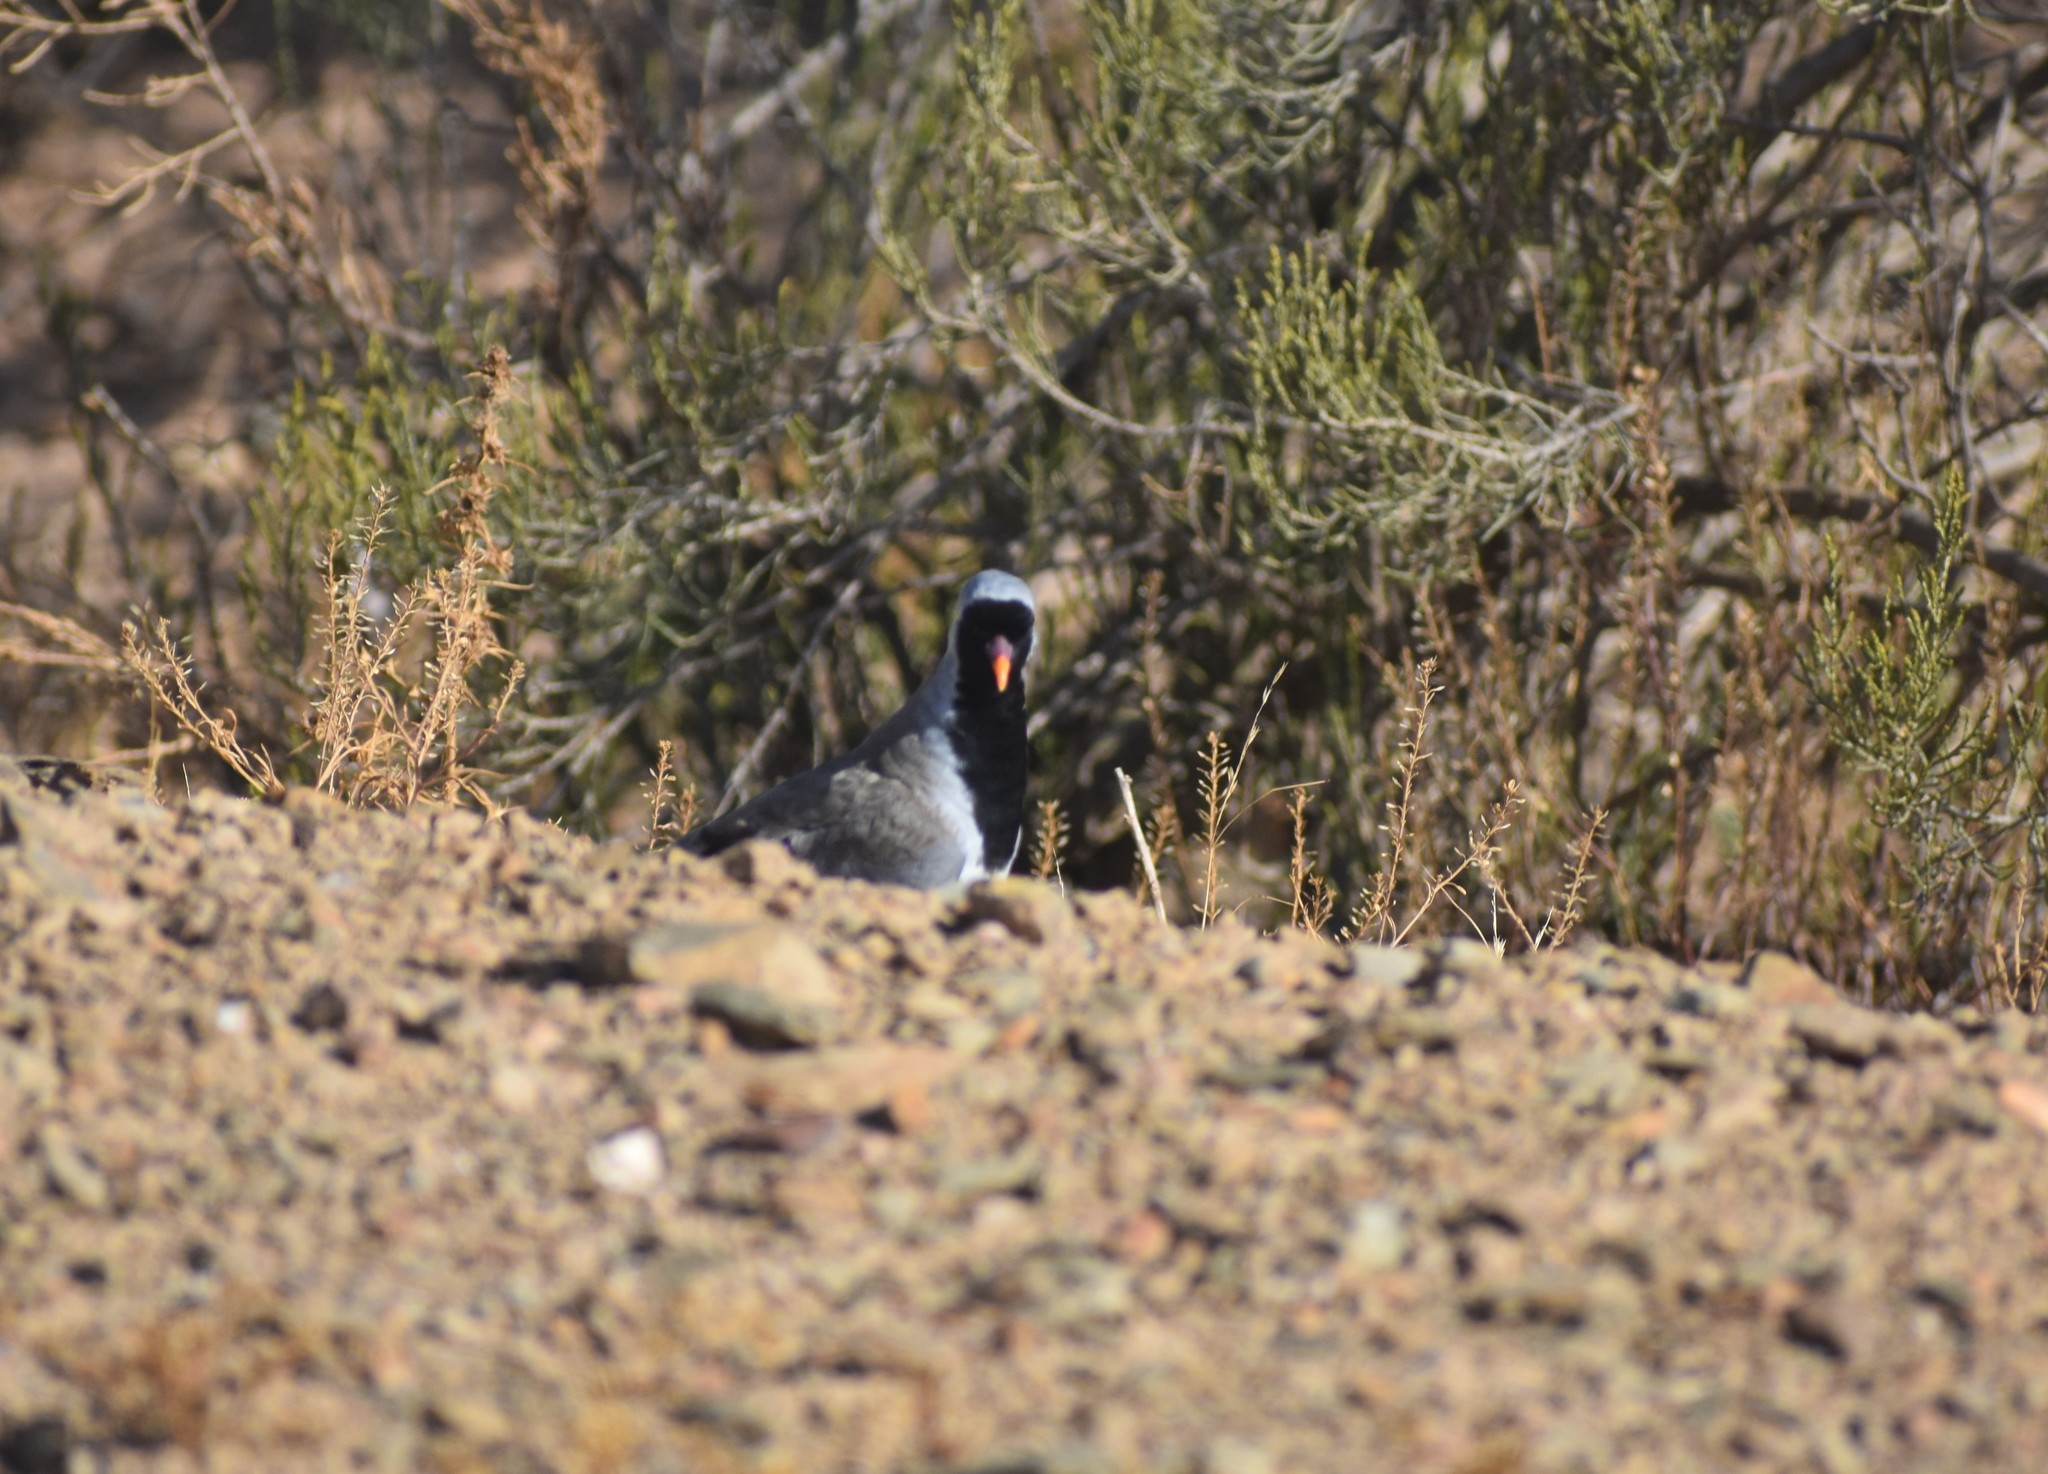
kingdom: Animalia
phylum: Chordata
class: Aves
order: Columbiformes
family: Columbidae
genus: Oena
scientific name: Oena capensis
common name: Namaqua dove
